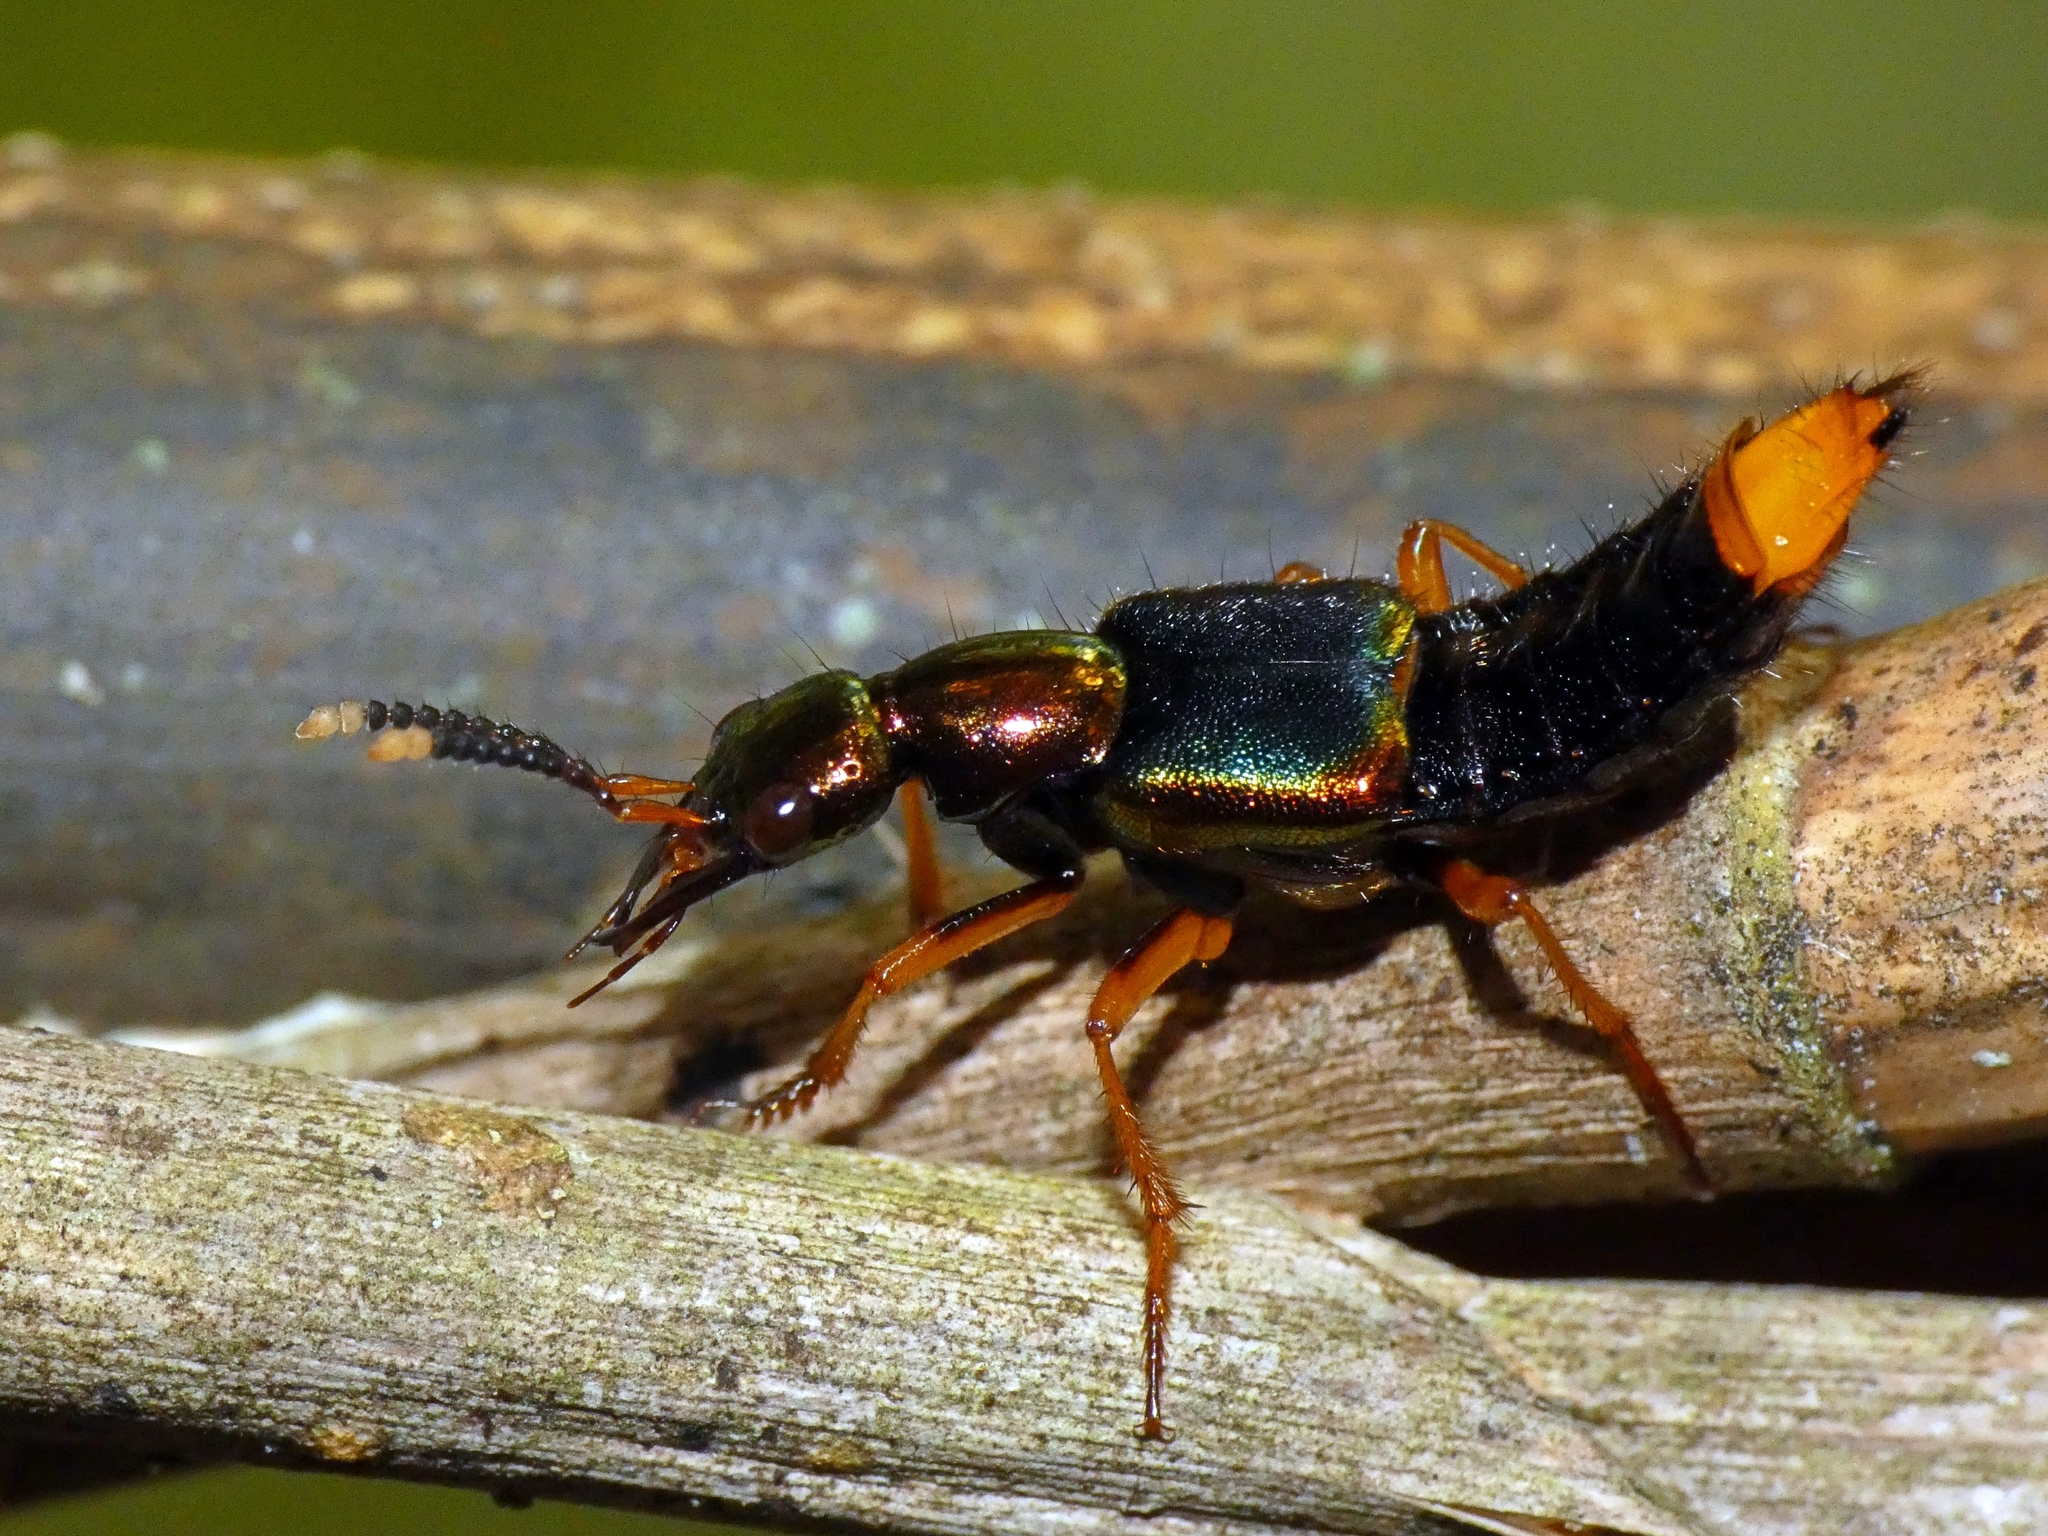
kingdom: Animalia
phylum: Arthropoda
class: Insecta
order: Coleoptera
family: Staphylinidae
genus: Actinus
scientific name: Actinus macleayi
